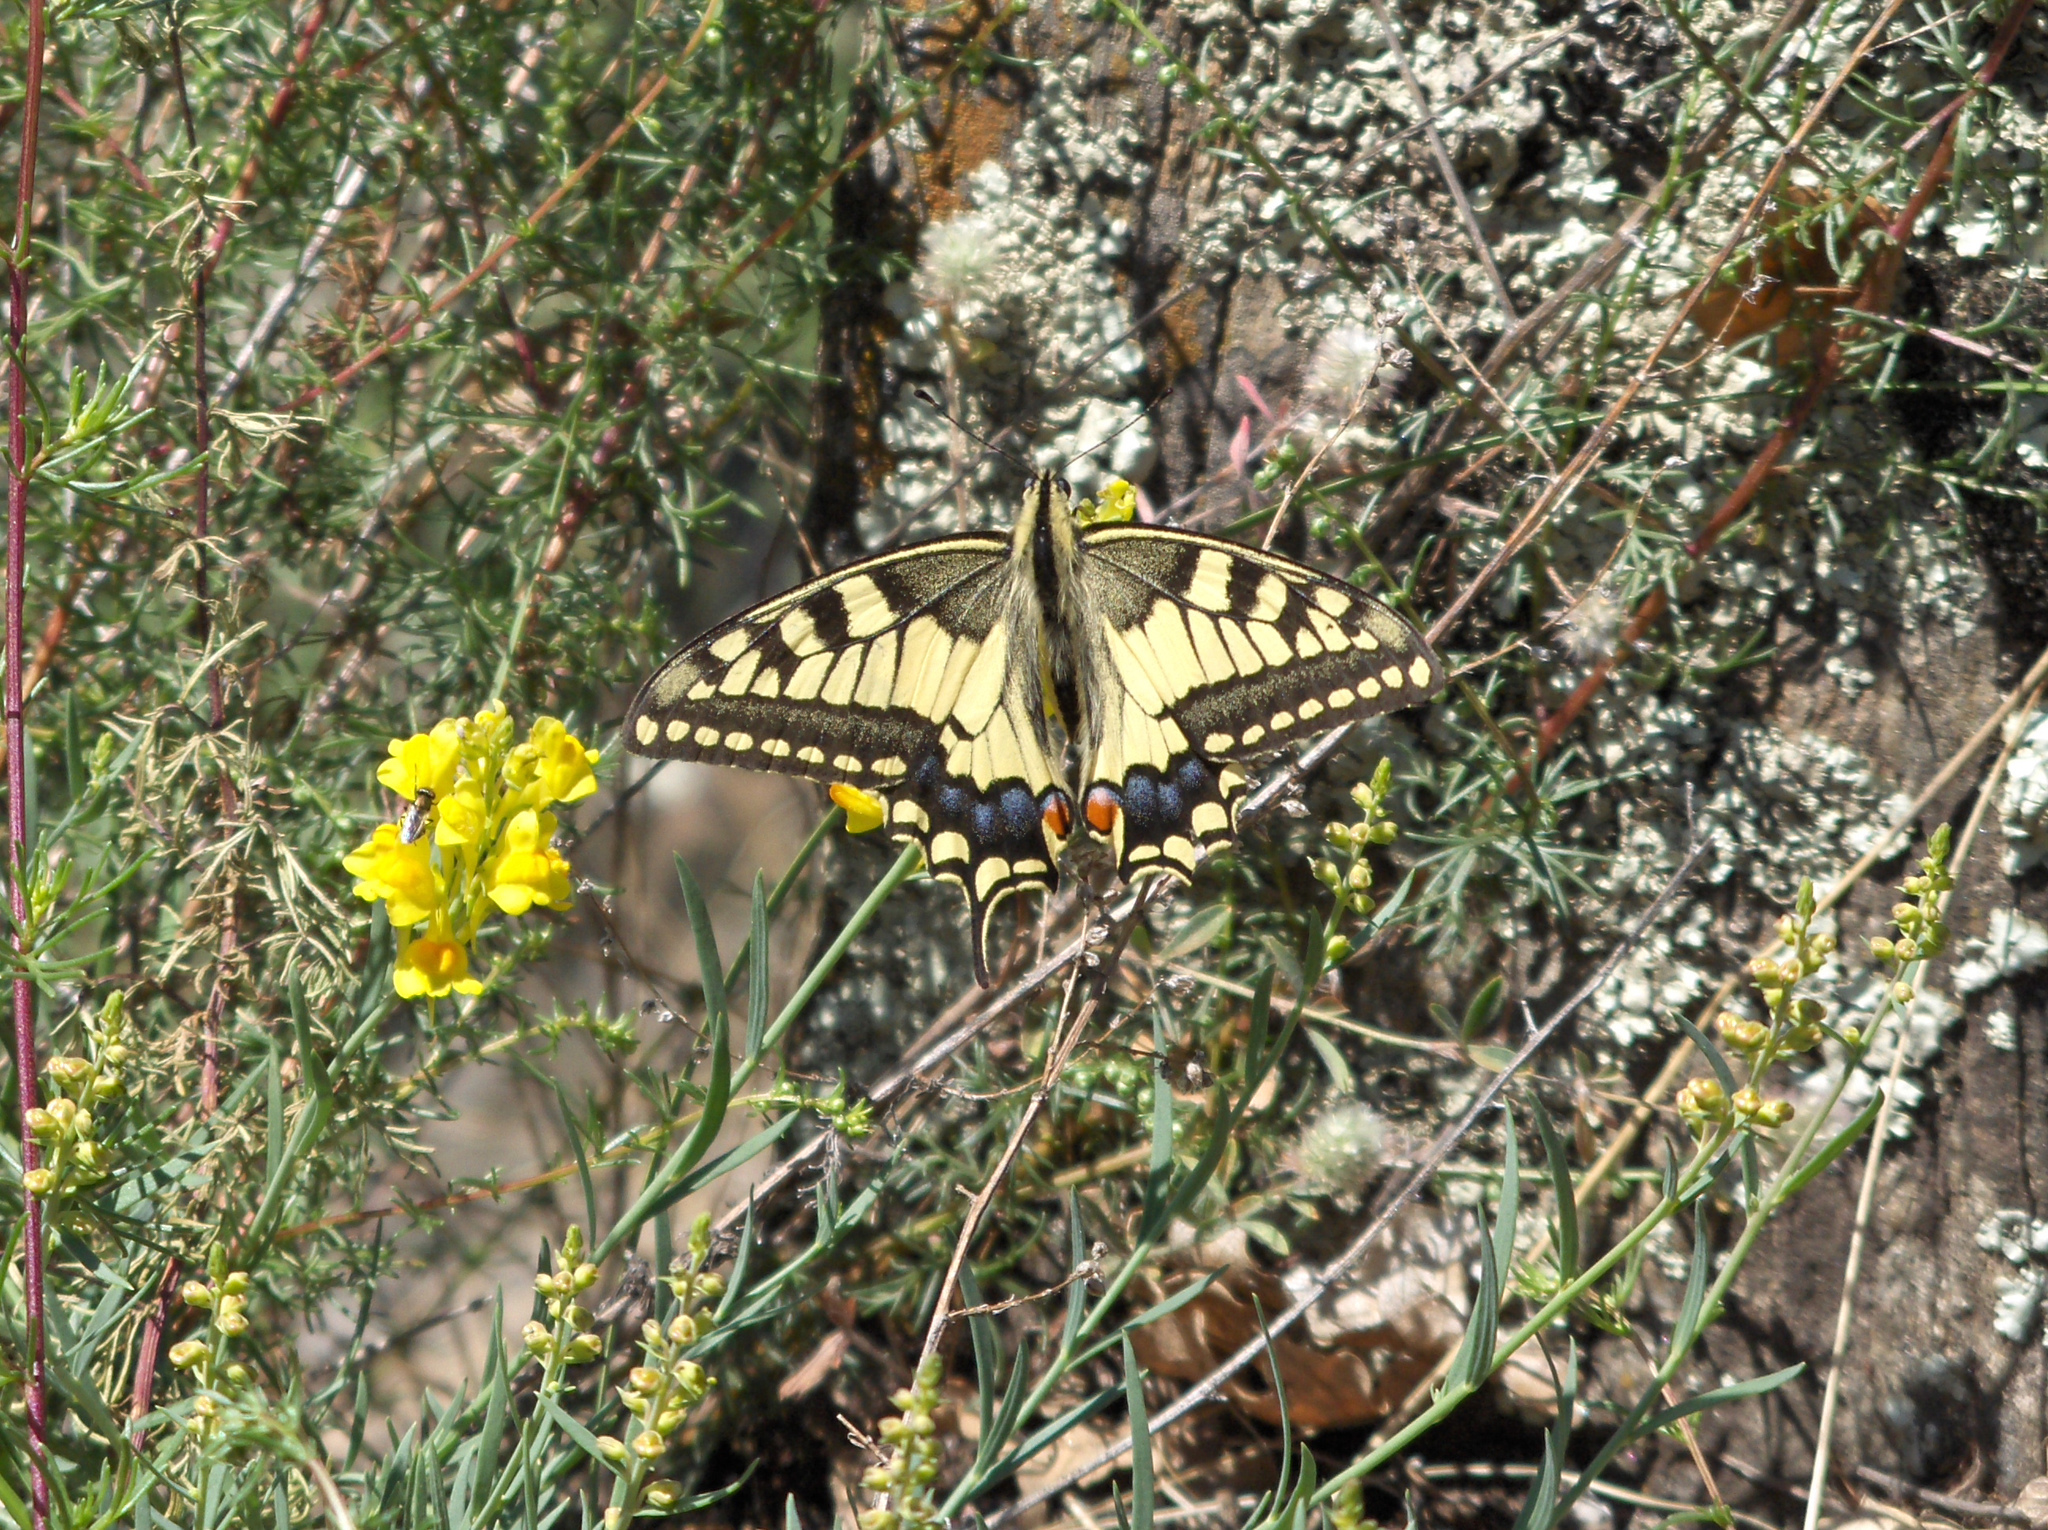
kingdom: Animalia
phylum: Arthropoda
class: Insecta
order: Lepidoptera
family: Papilionidae
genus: Papilio
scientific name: Papilio machaon
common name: Swallowtail
